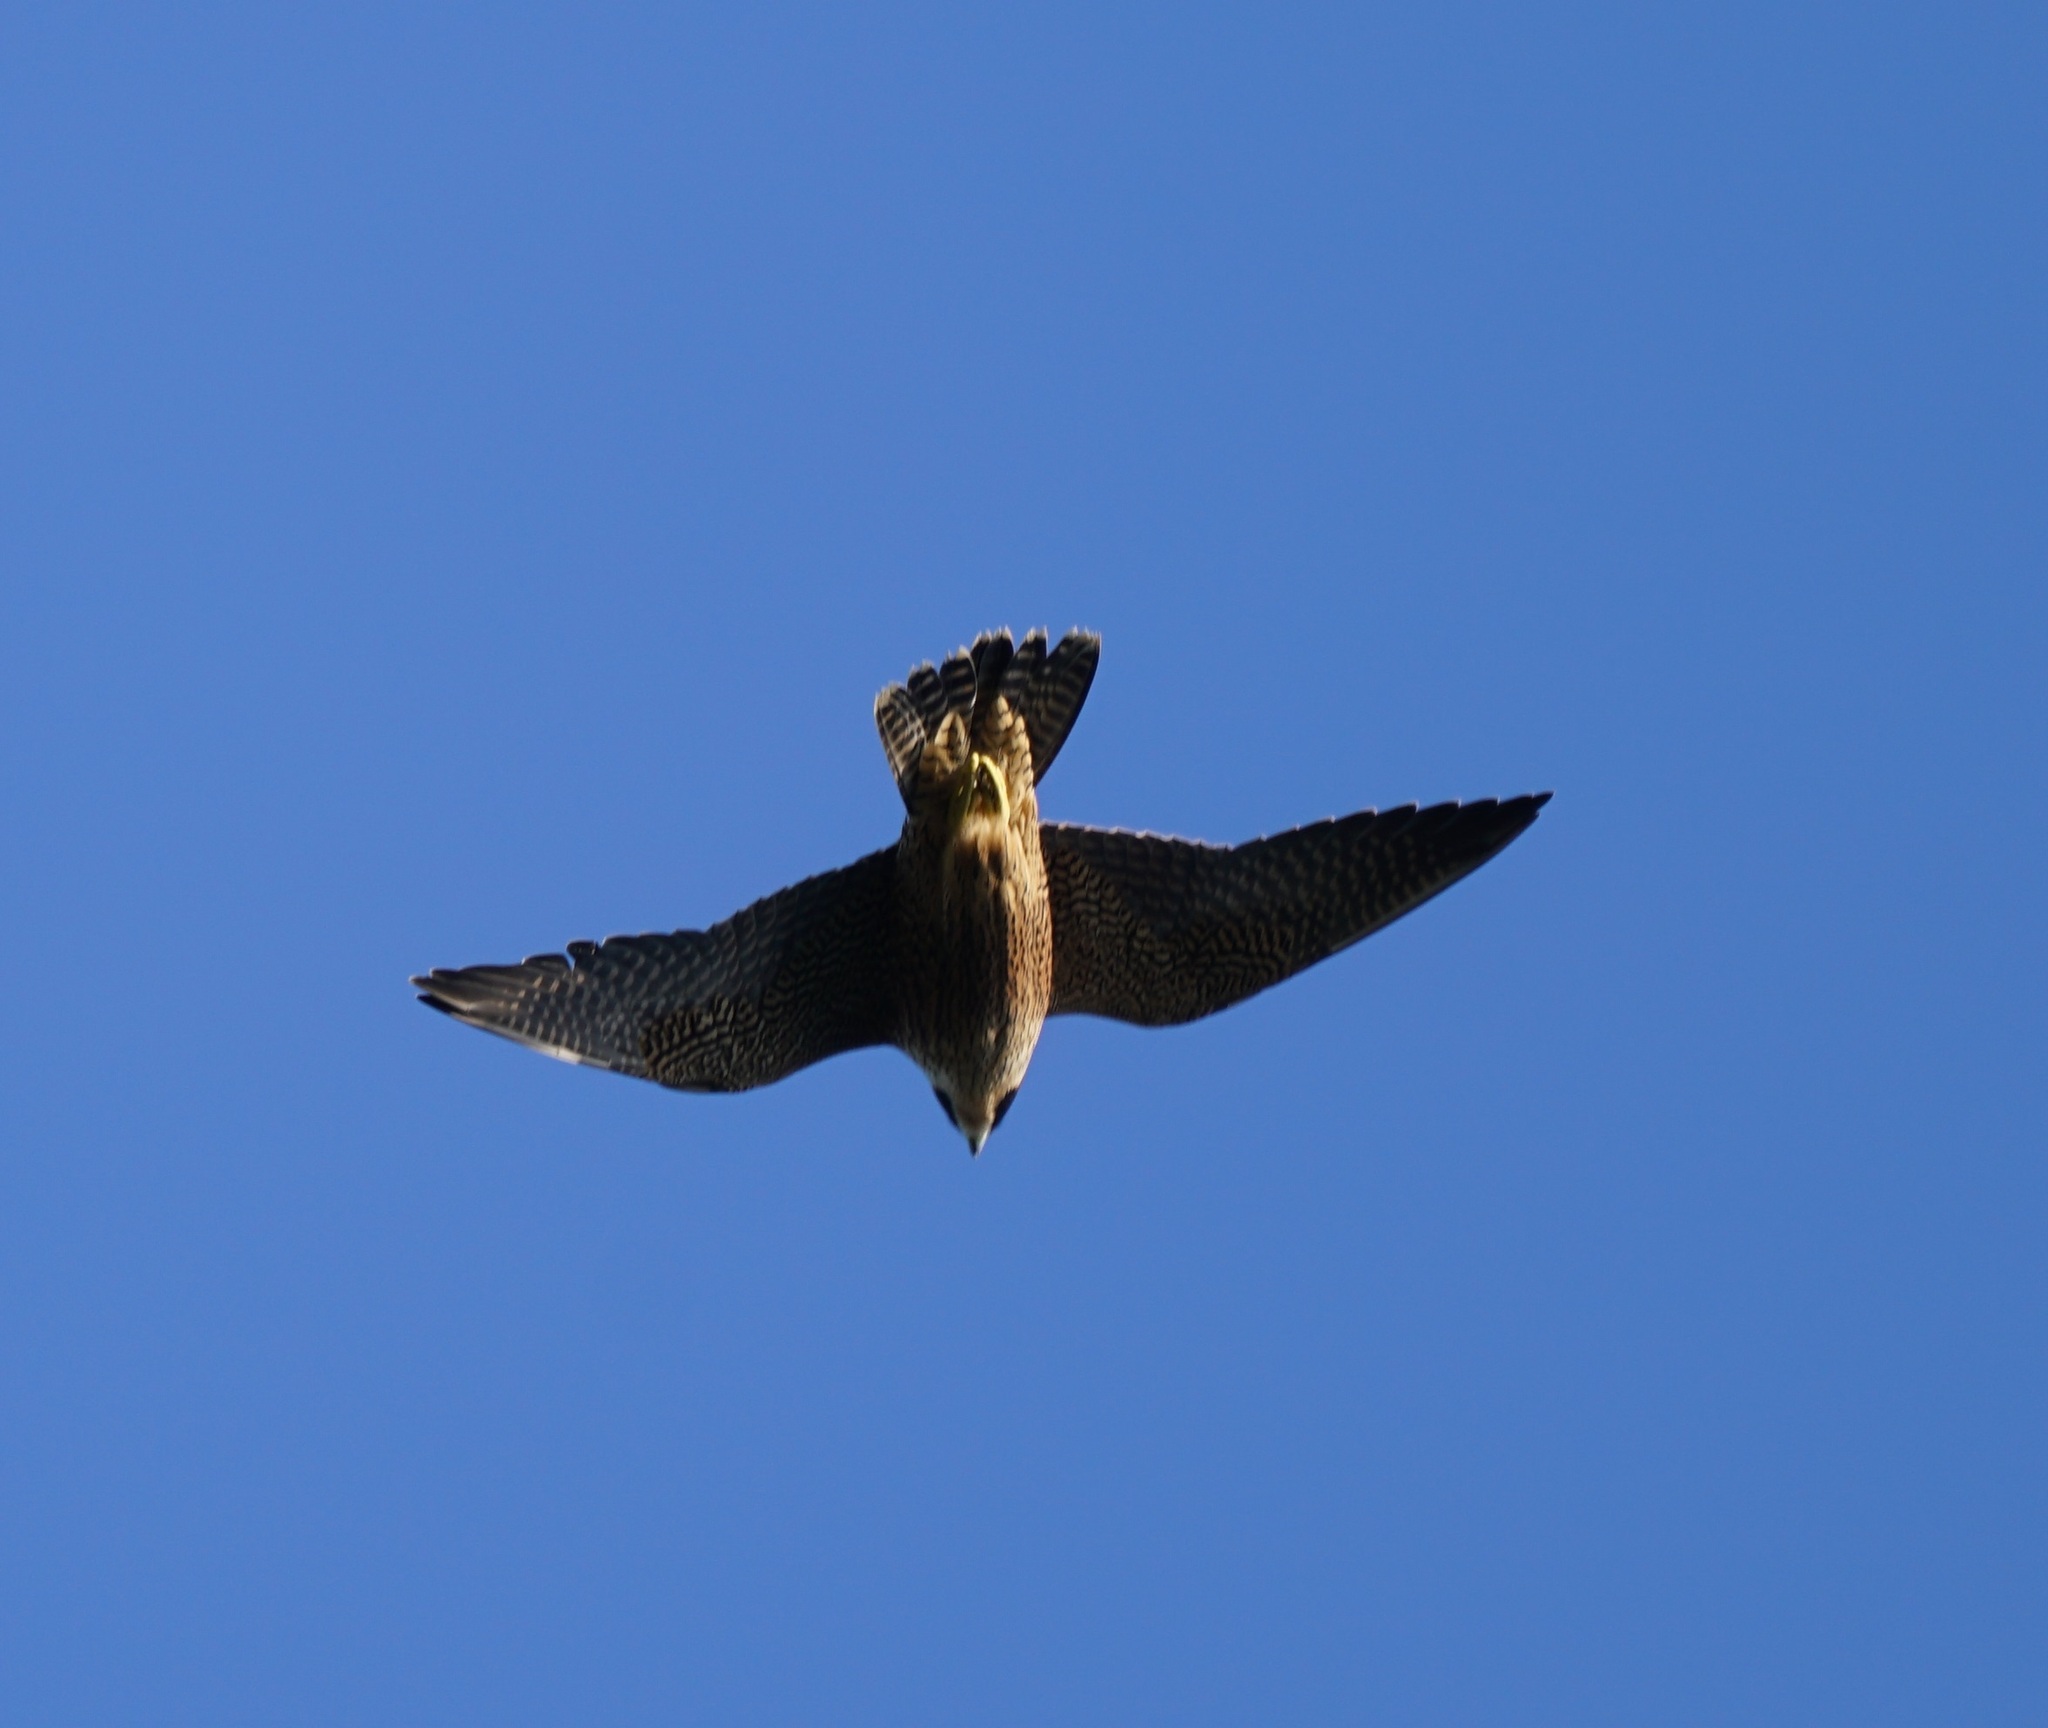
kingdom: Animalia
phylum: Chordata
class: Aves
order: Falconiformes
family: Falconidae
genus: Falco
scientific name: Falco peregrinus
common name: Peregrine falcon
